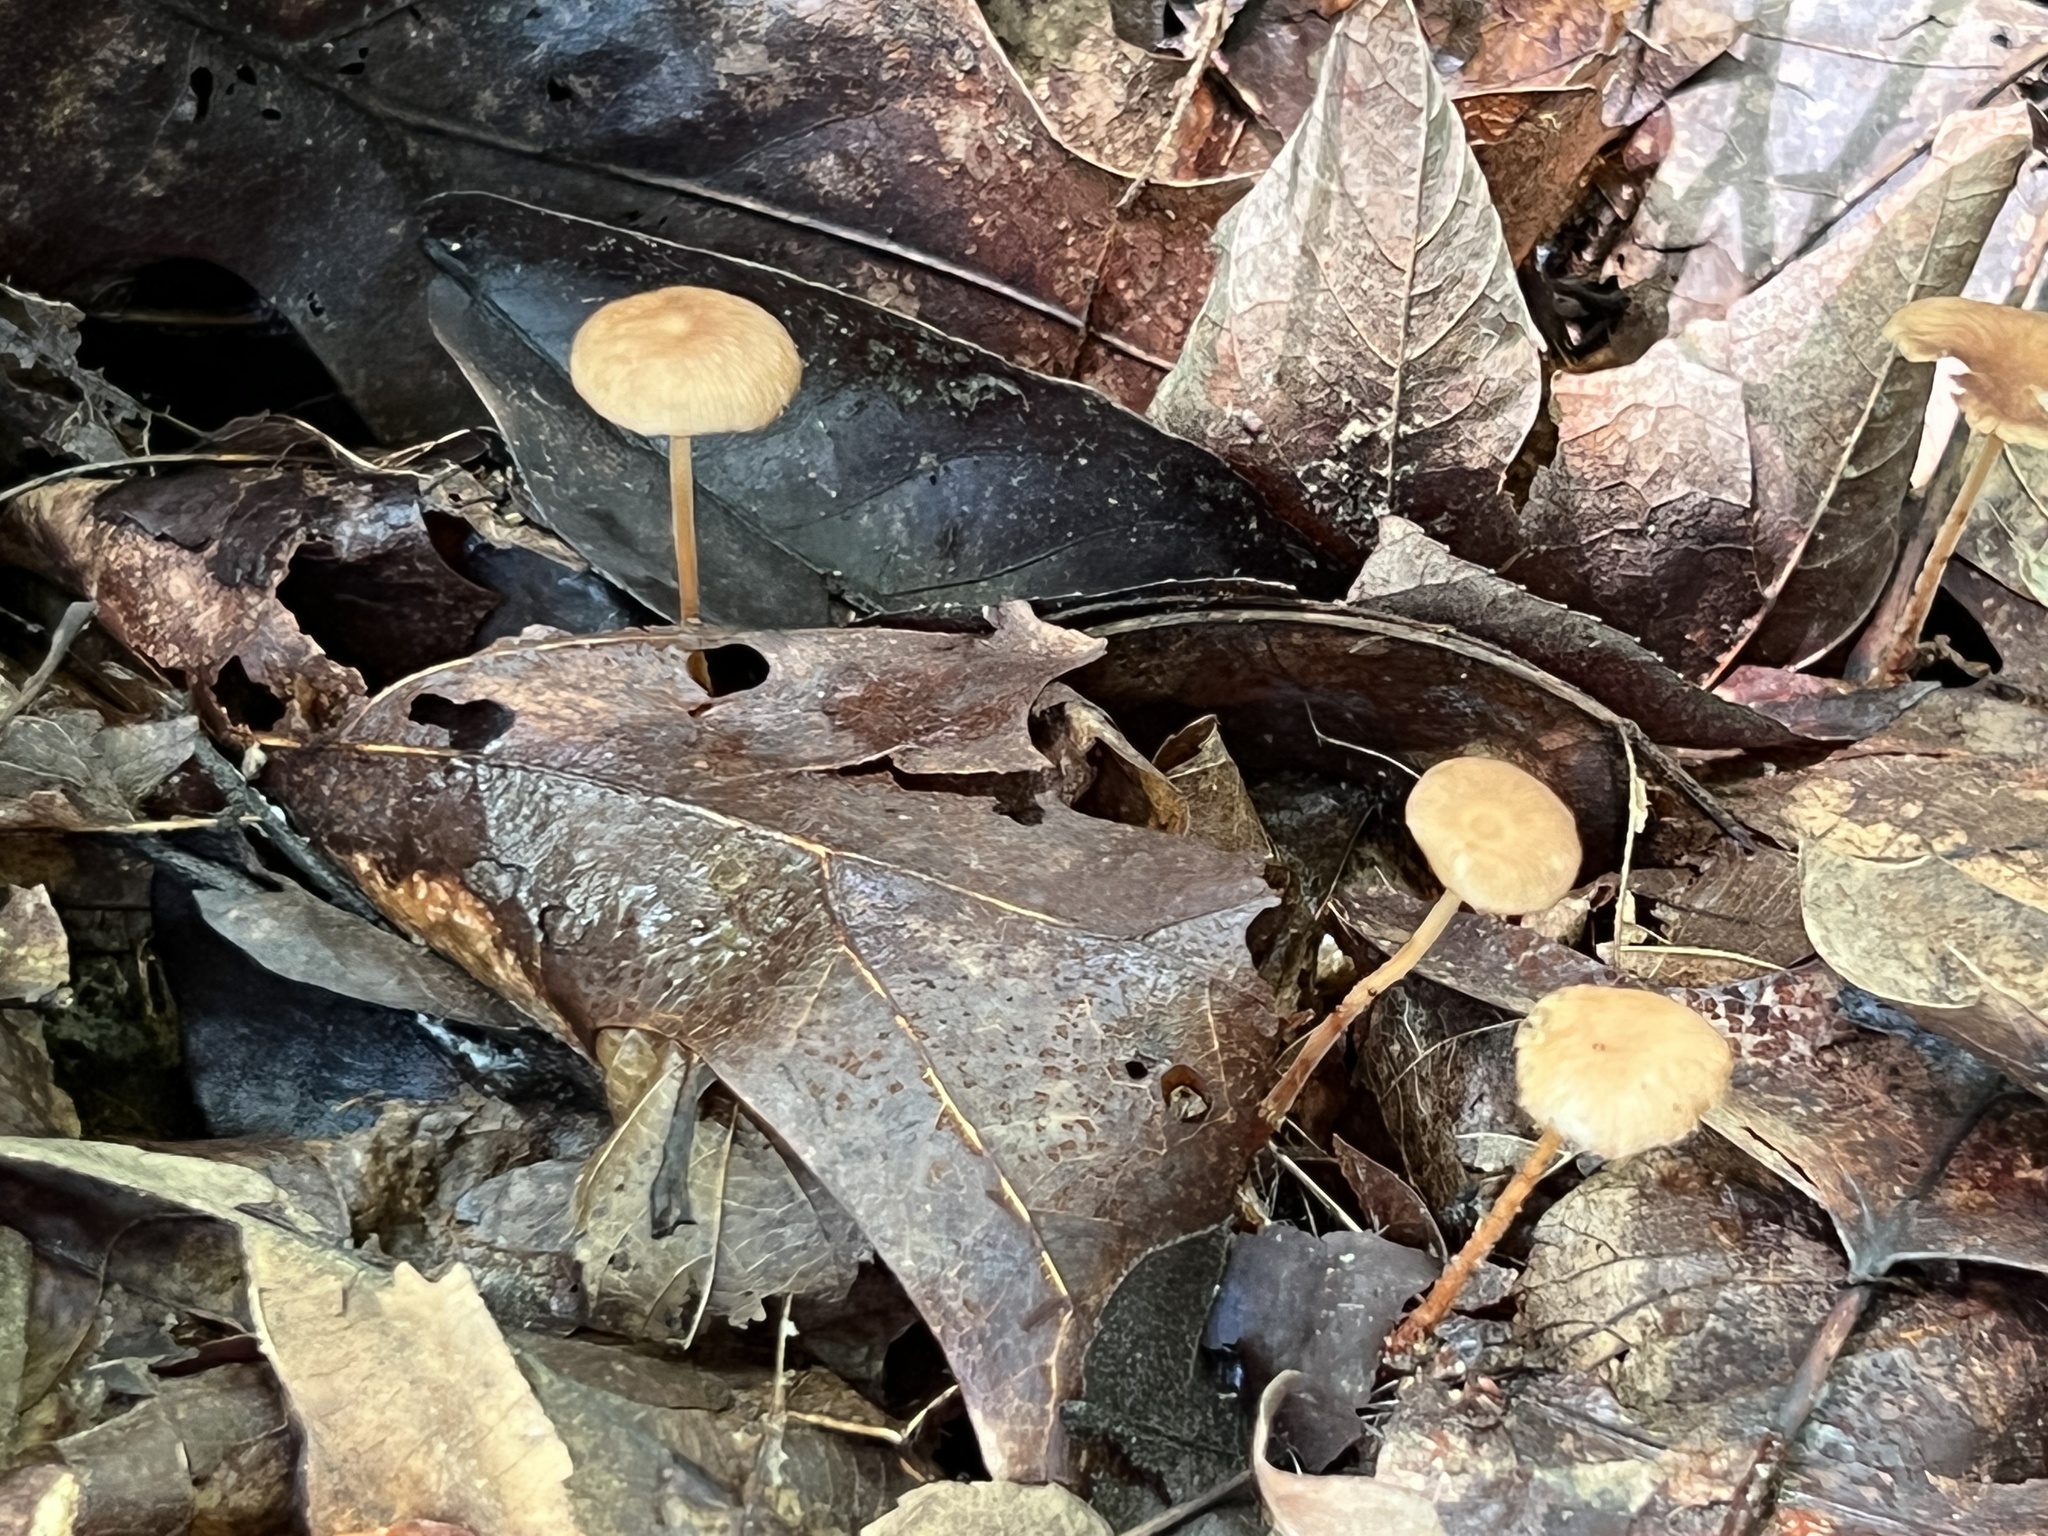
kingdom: Fungi
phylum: Basidiomycota
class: Agaricomycetes
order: Agaricales
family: Omphalotaceae
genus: Collybiopsis
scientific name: Collybiopsis biformis
